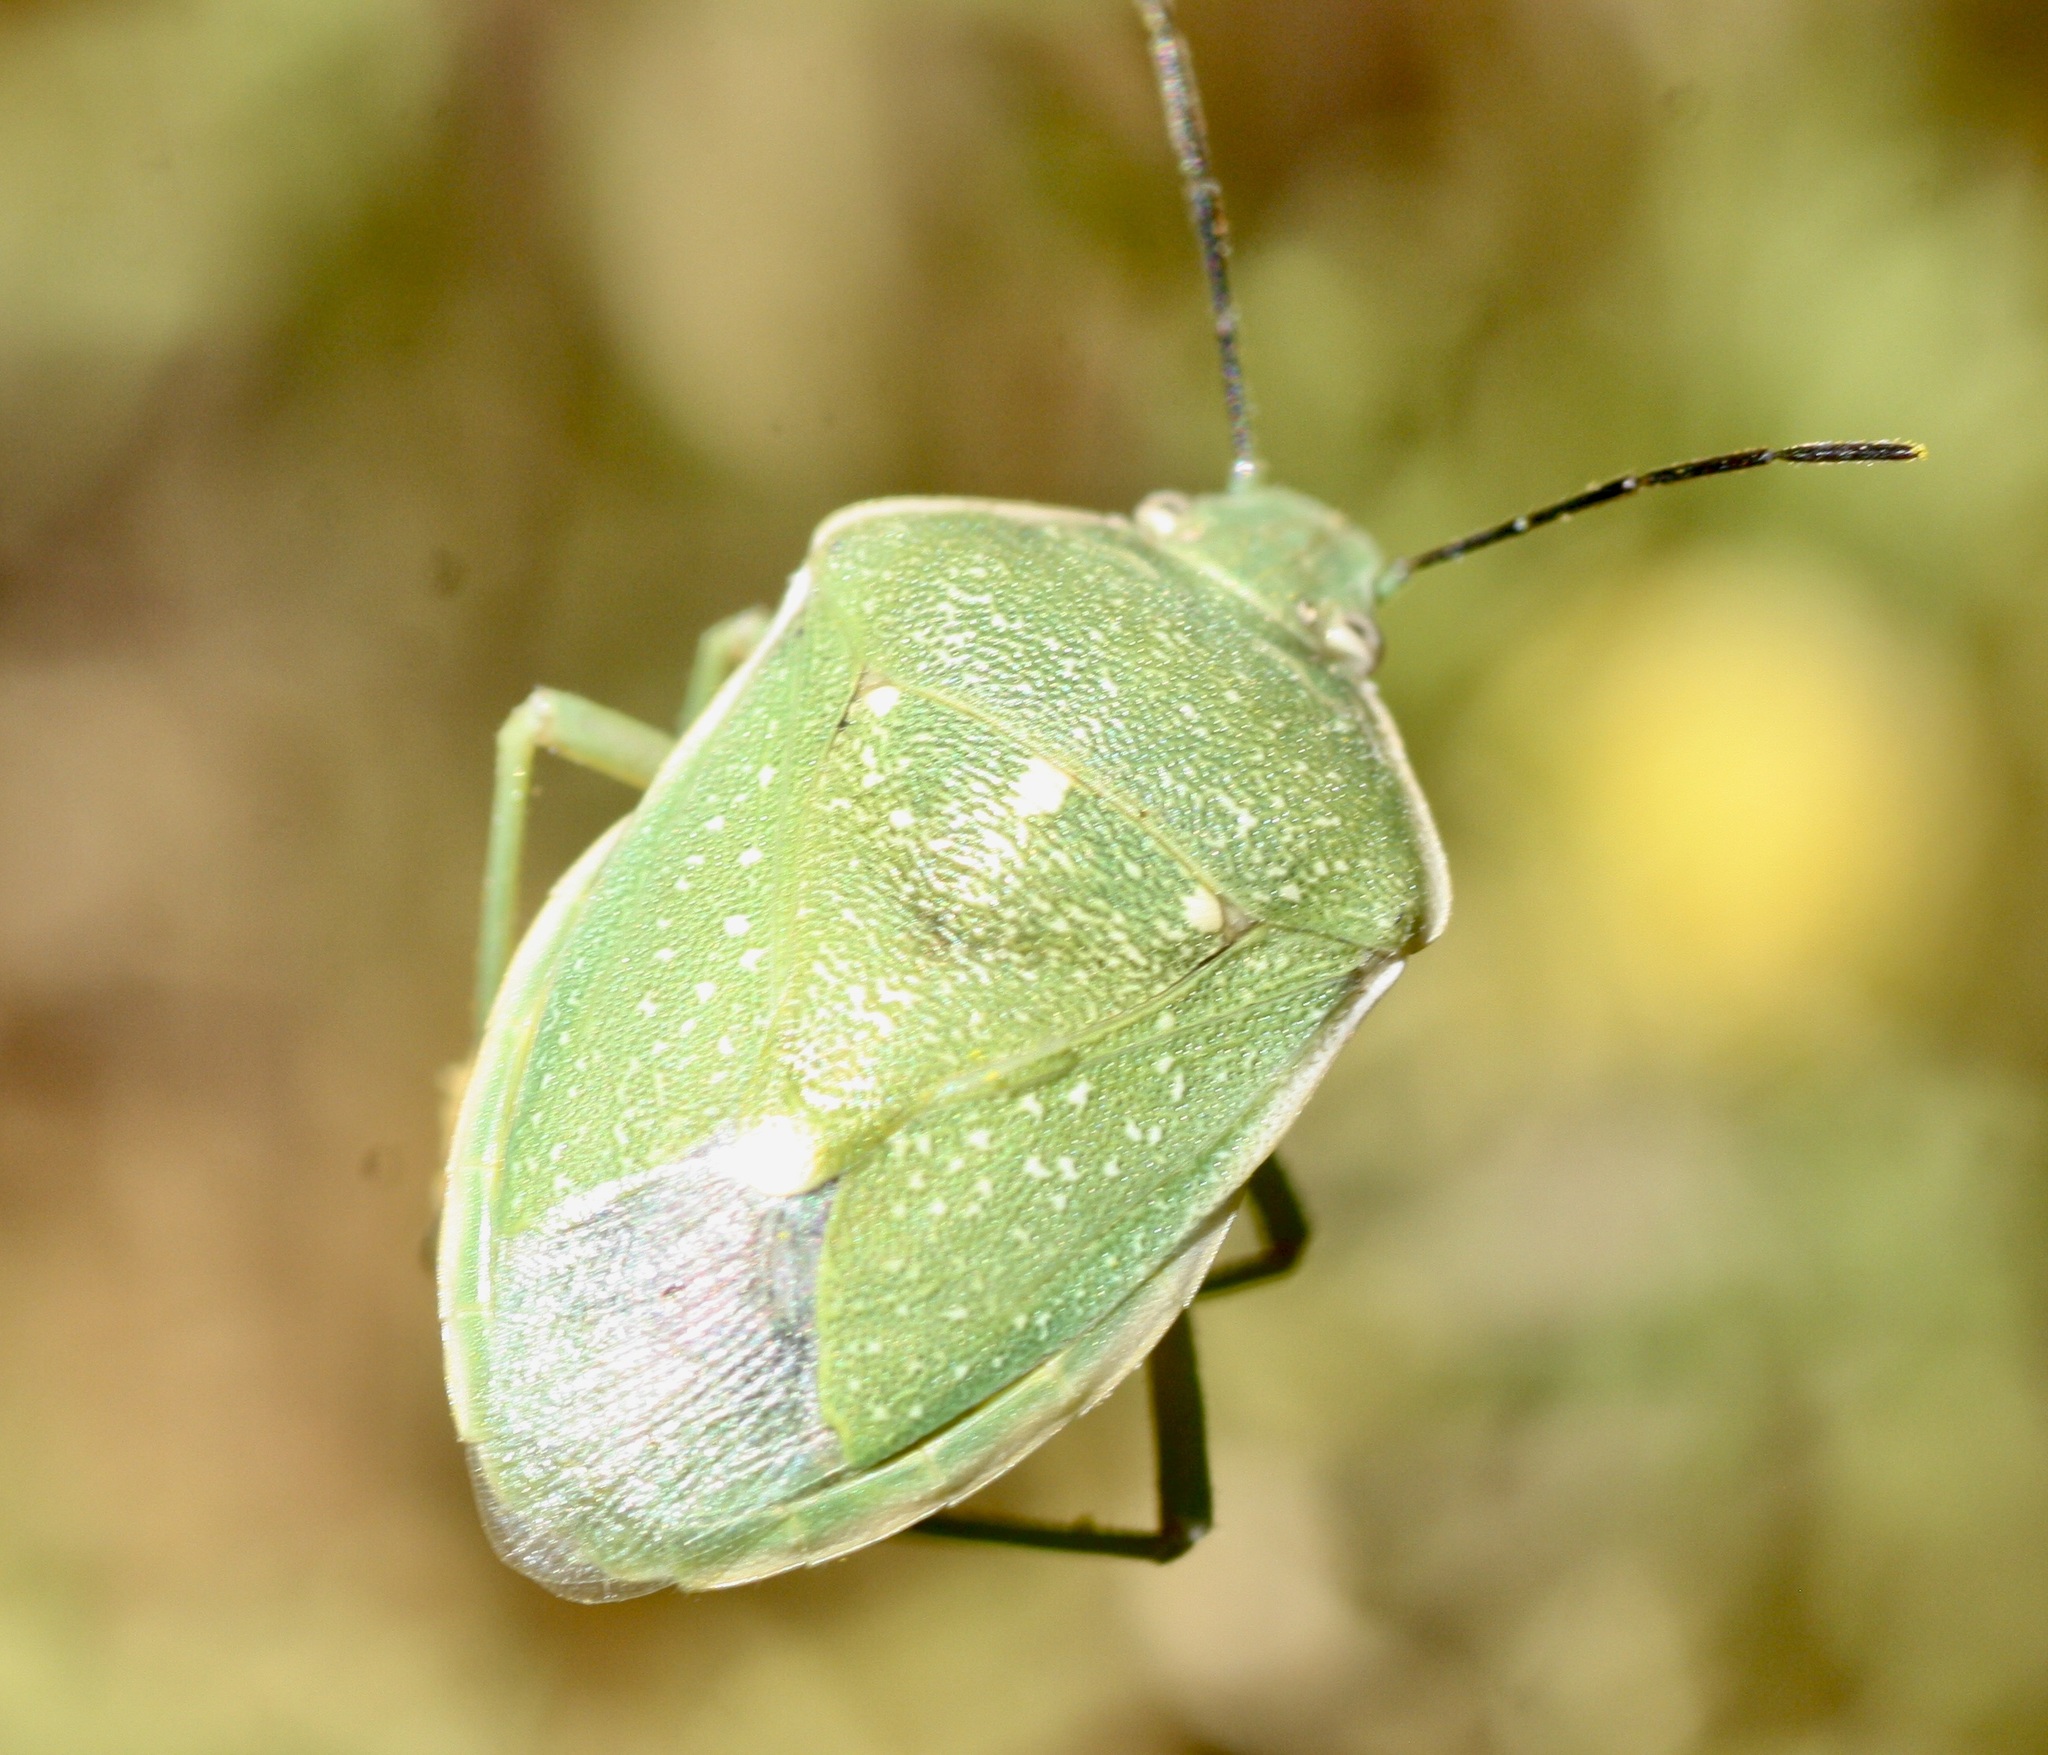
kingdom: Animalia
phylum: Arthropoda
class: Insecta
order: Hemiptera
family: Pentatomidae
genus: Chlorochroa
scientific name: Chlorochroa uhleri
